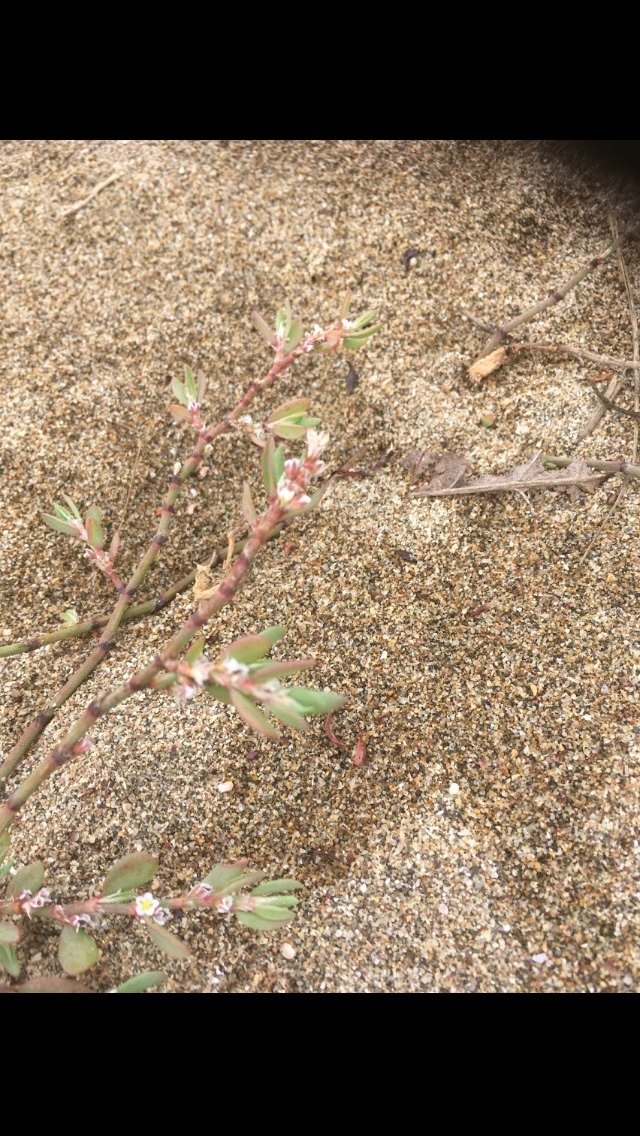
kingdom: Plantae
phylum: Tracheophyta
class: Magnoliopsida
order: Caryophyllales
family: Polygonaceae
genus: Polygonum
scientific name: Polygonum maritimum
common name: Sea knotgrass
